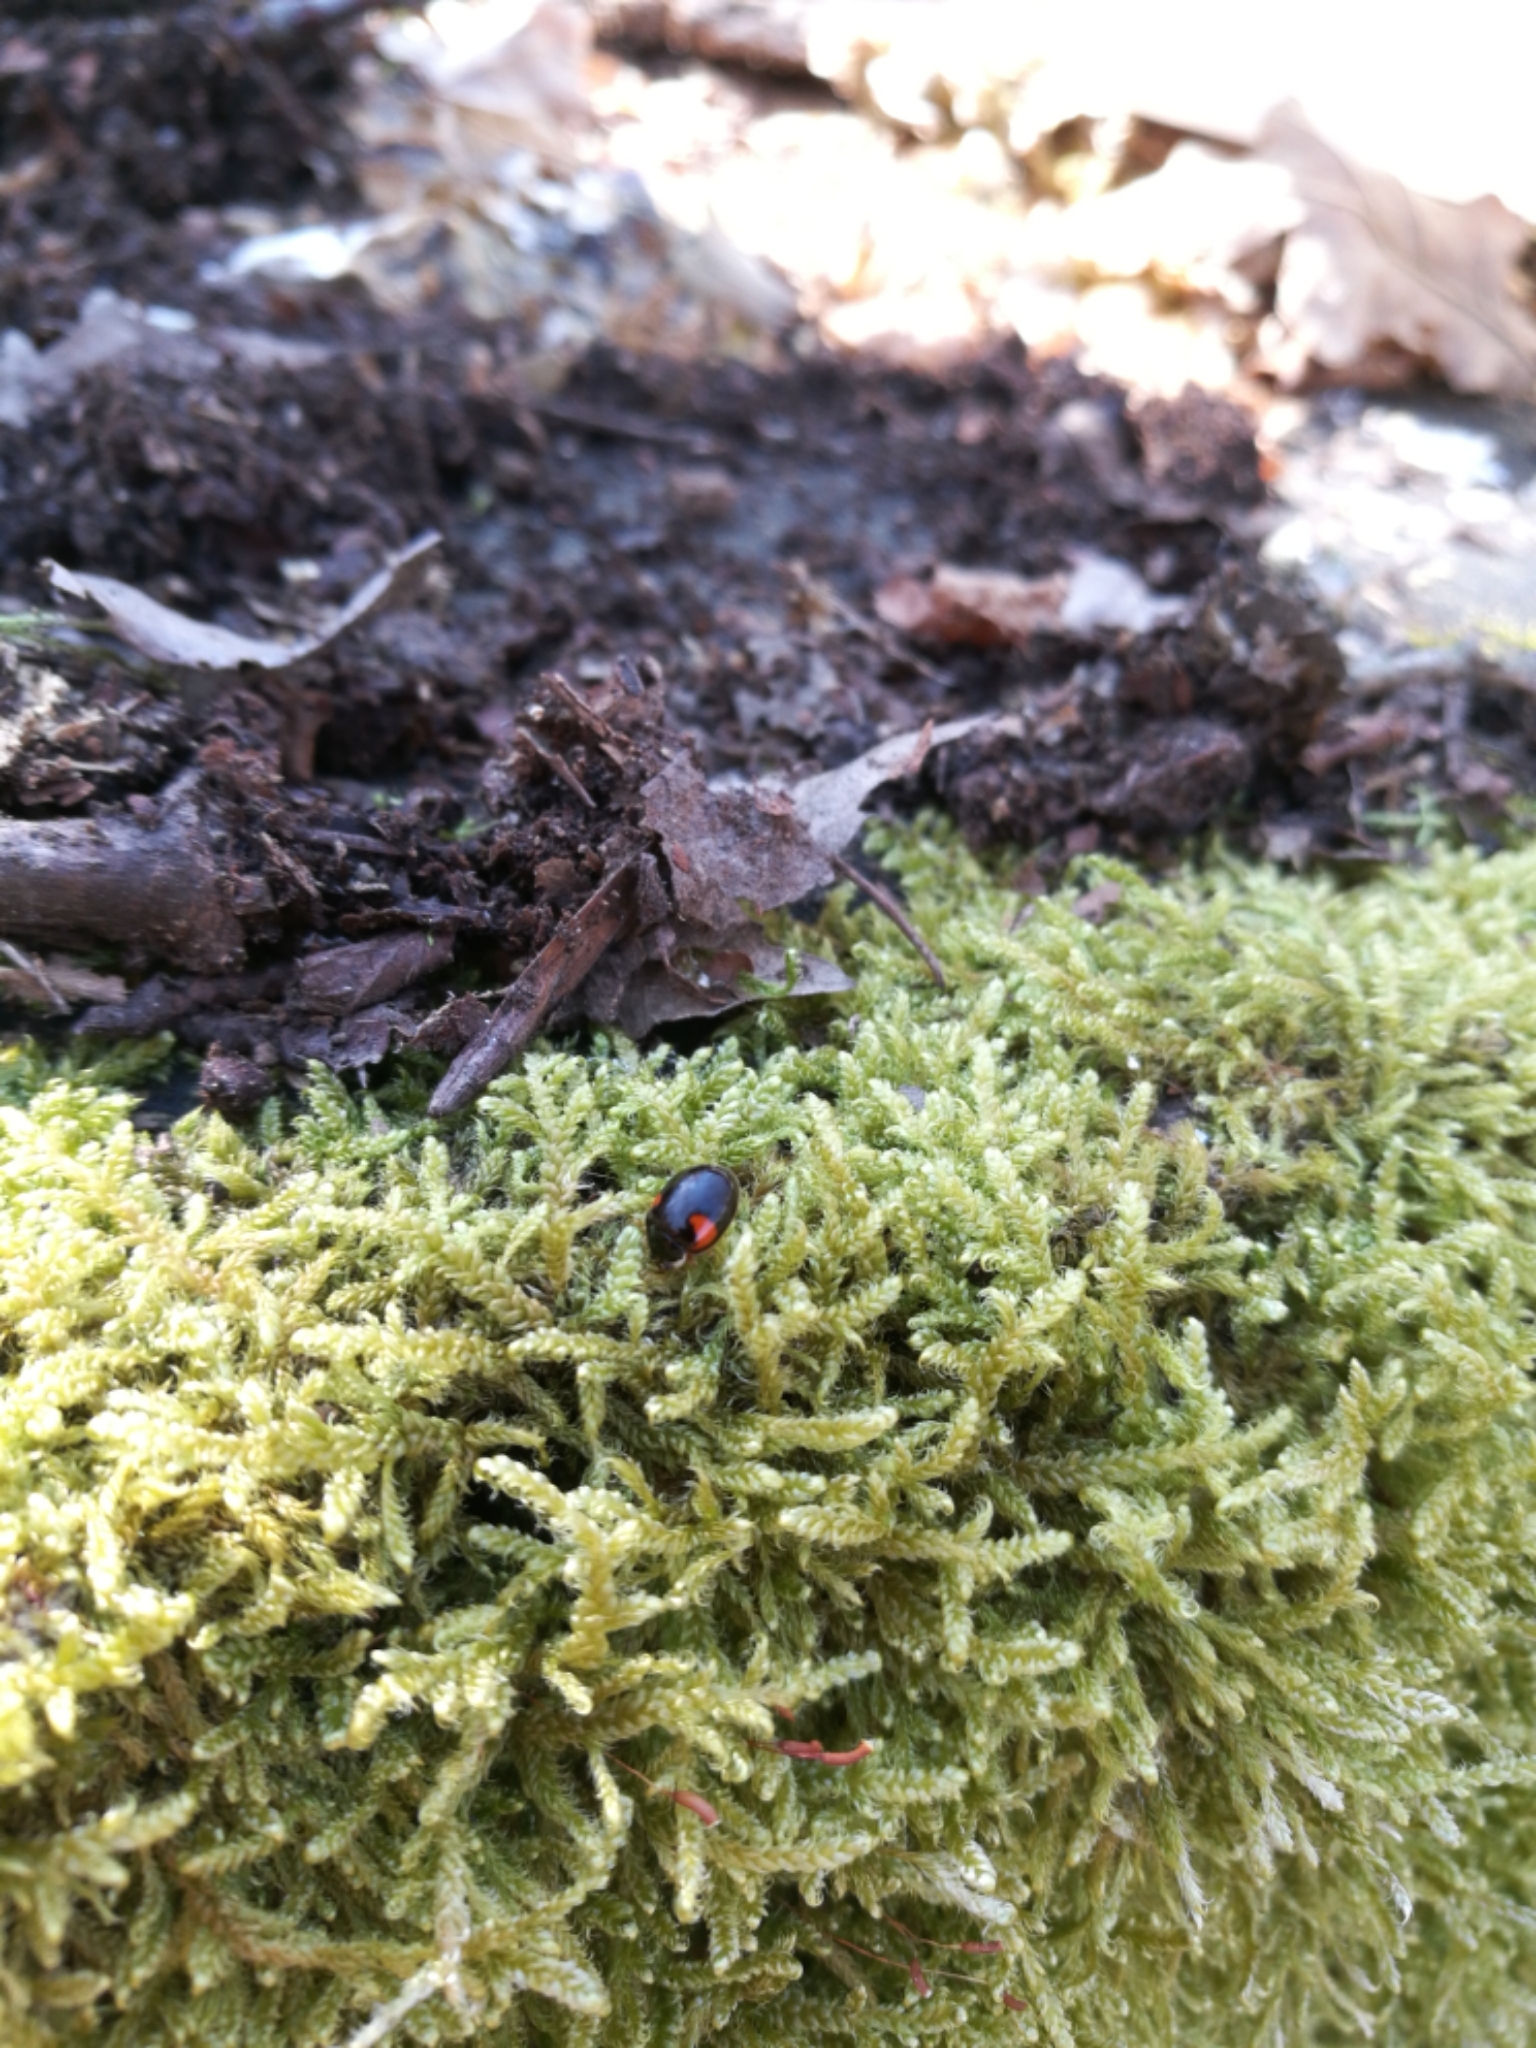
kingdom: Animalia
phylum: Arthropoda
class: Insecta
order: Coleoptera
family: Coccinellidae
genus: Adalia
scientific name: Adalia decempunctata
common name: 10-spot ladybird
